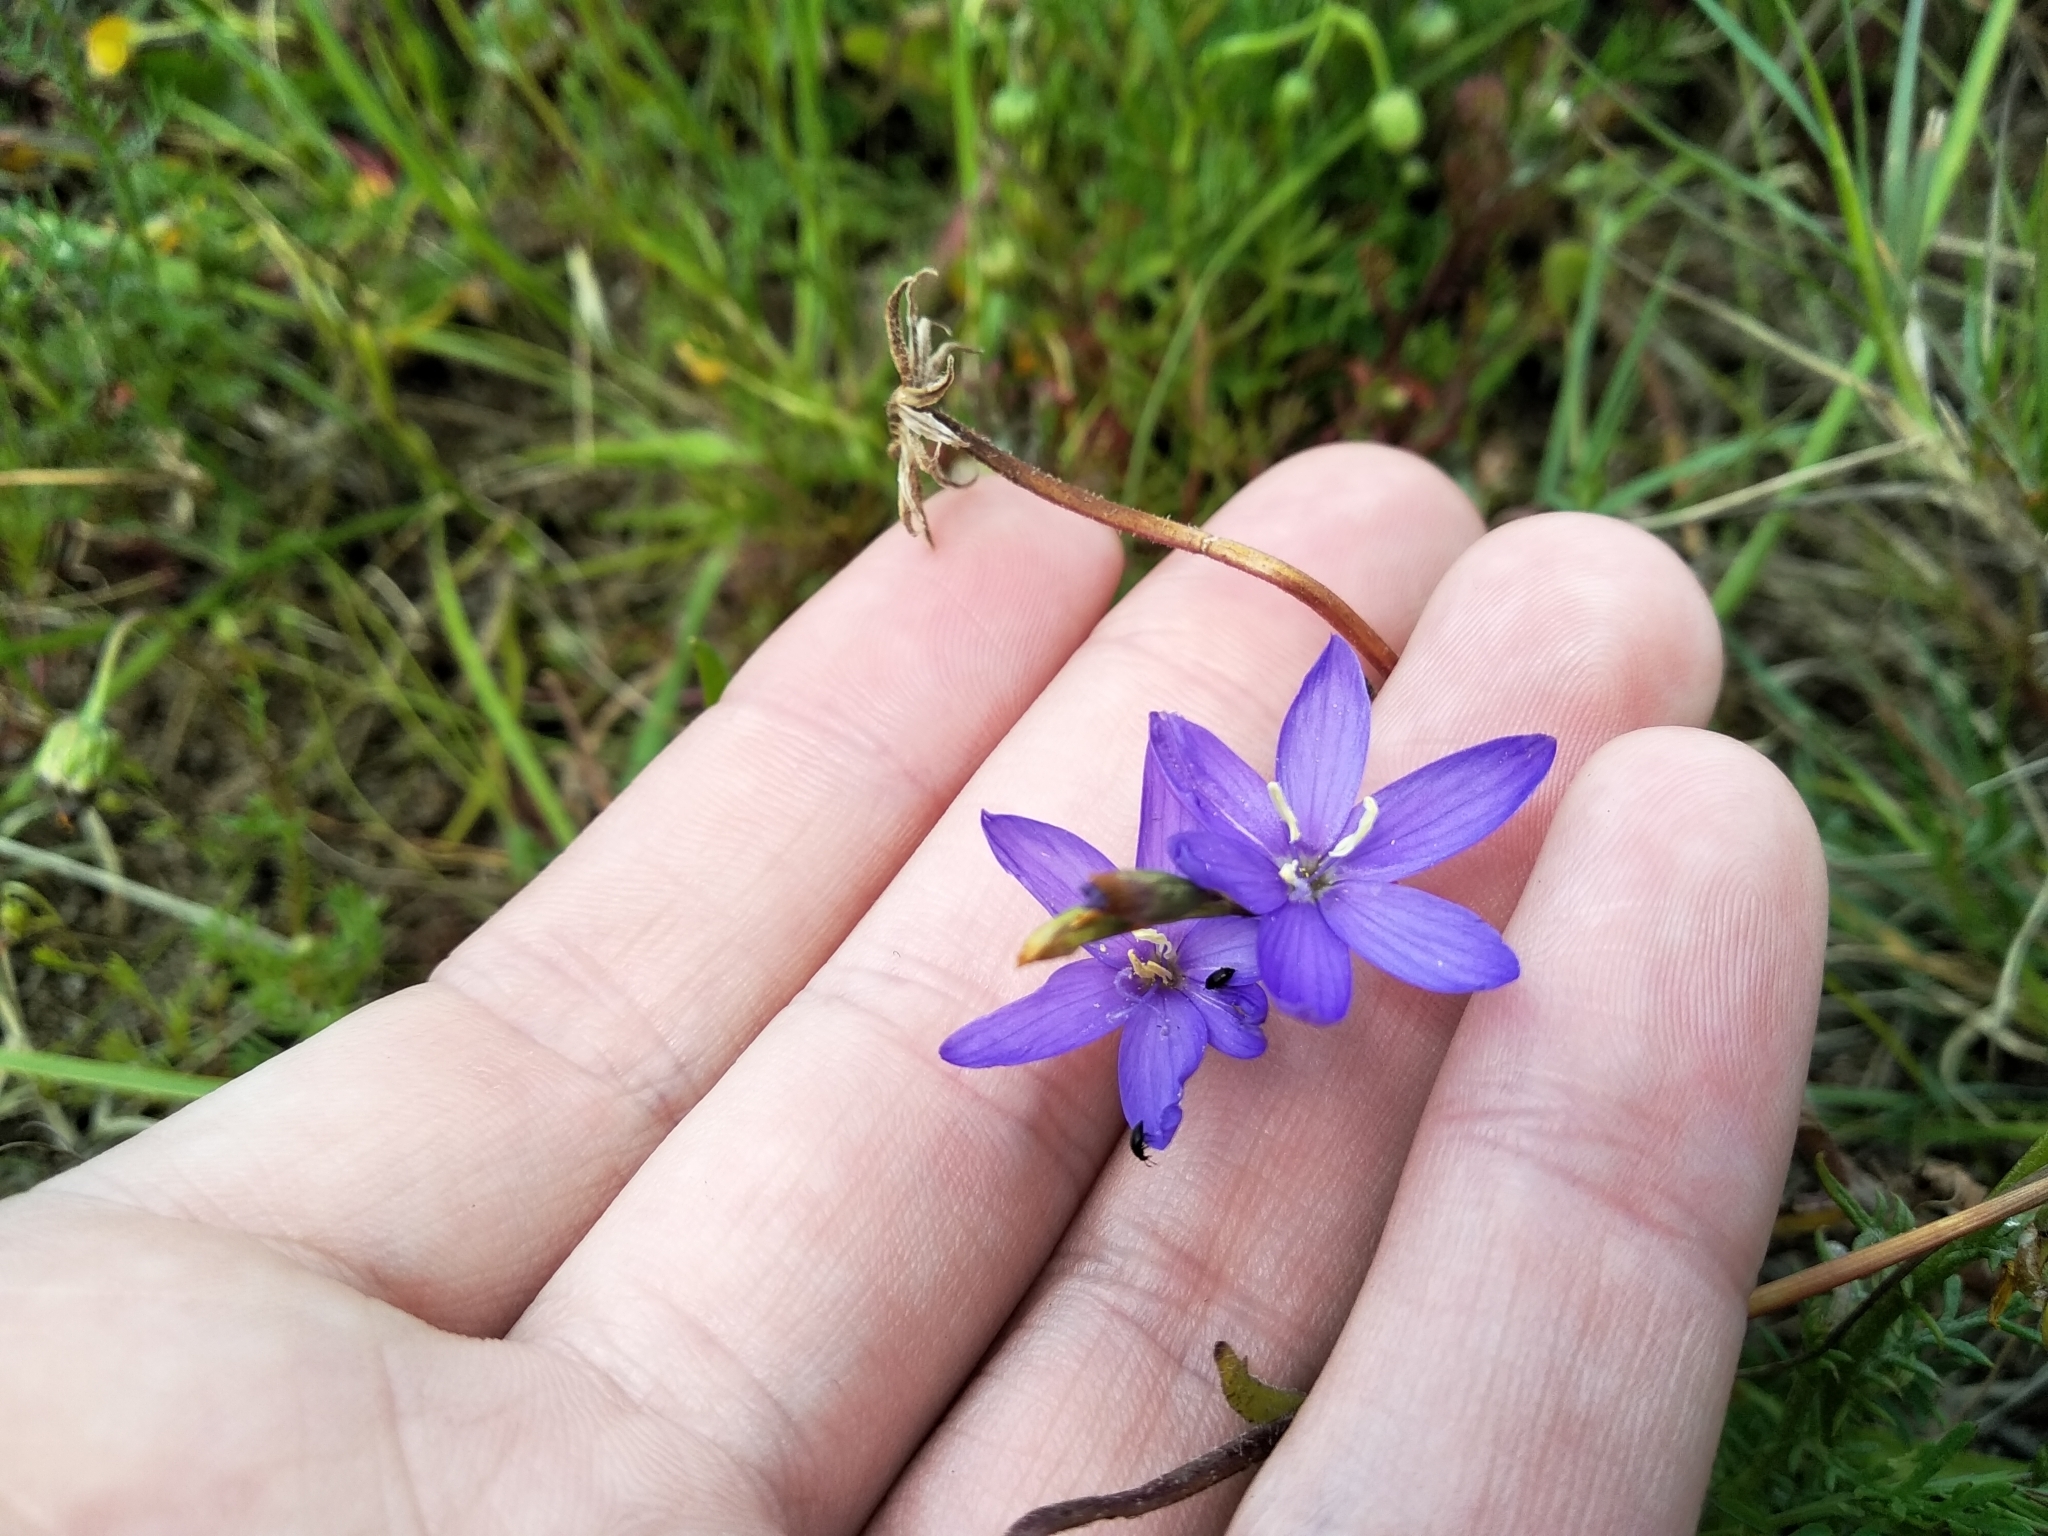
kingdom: Plantae
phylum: Tracheophyta
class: Liliopsida
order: Asparagales
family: Iridaceae
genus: Geissorhiza
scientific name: Geissorhiza aspera
